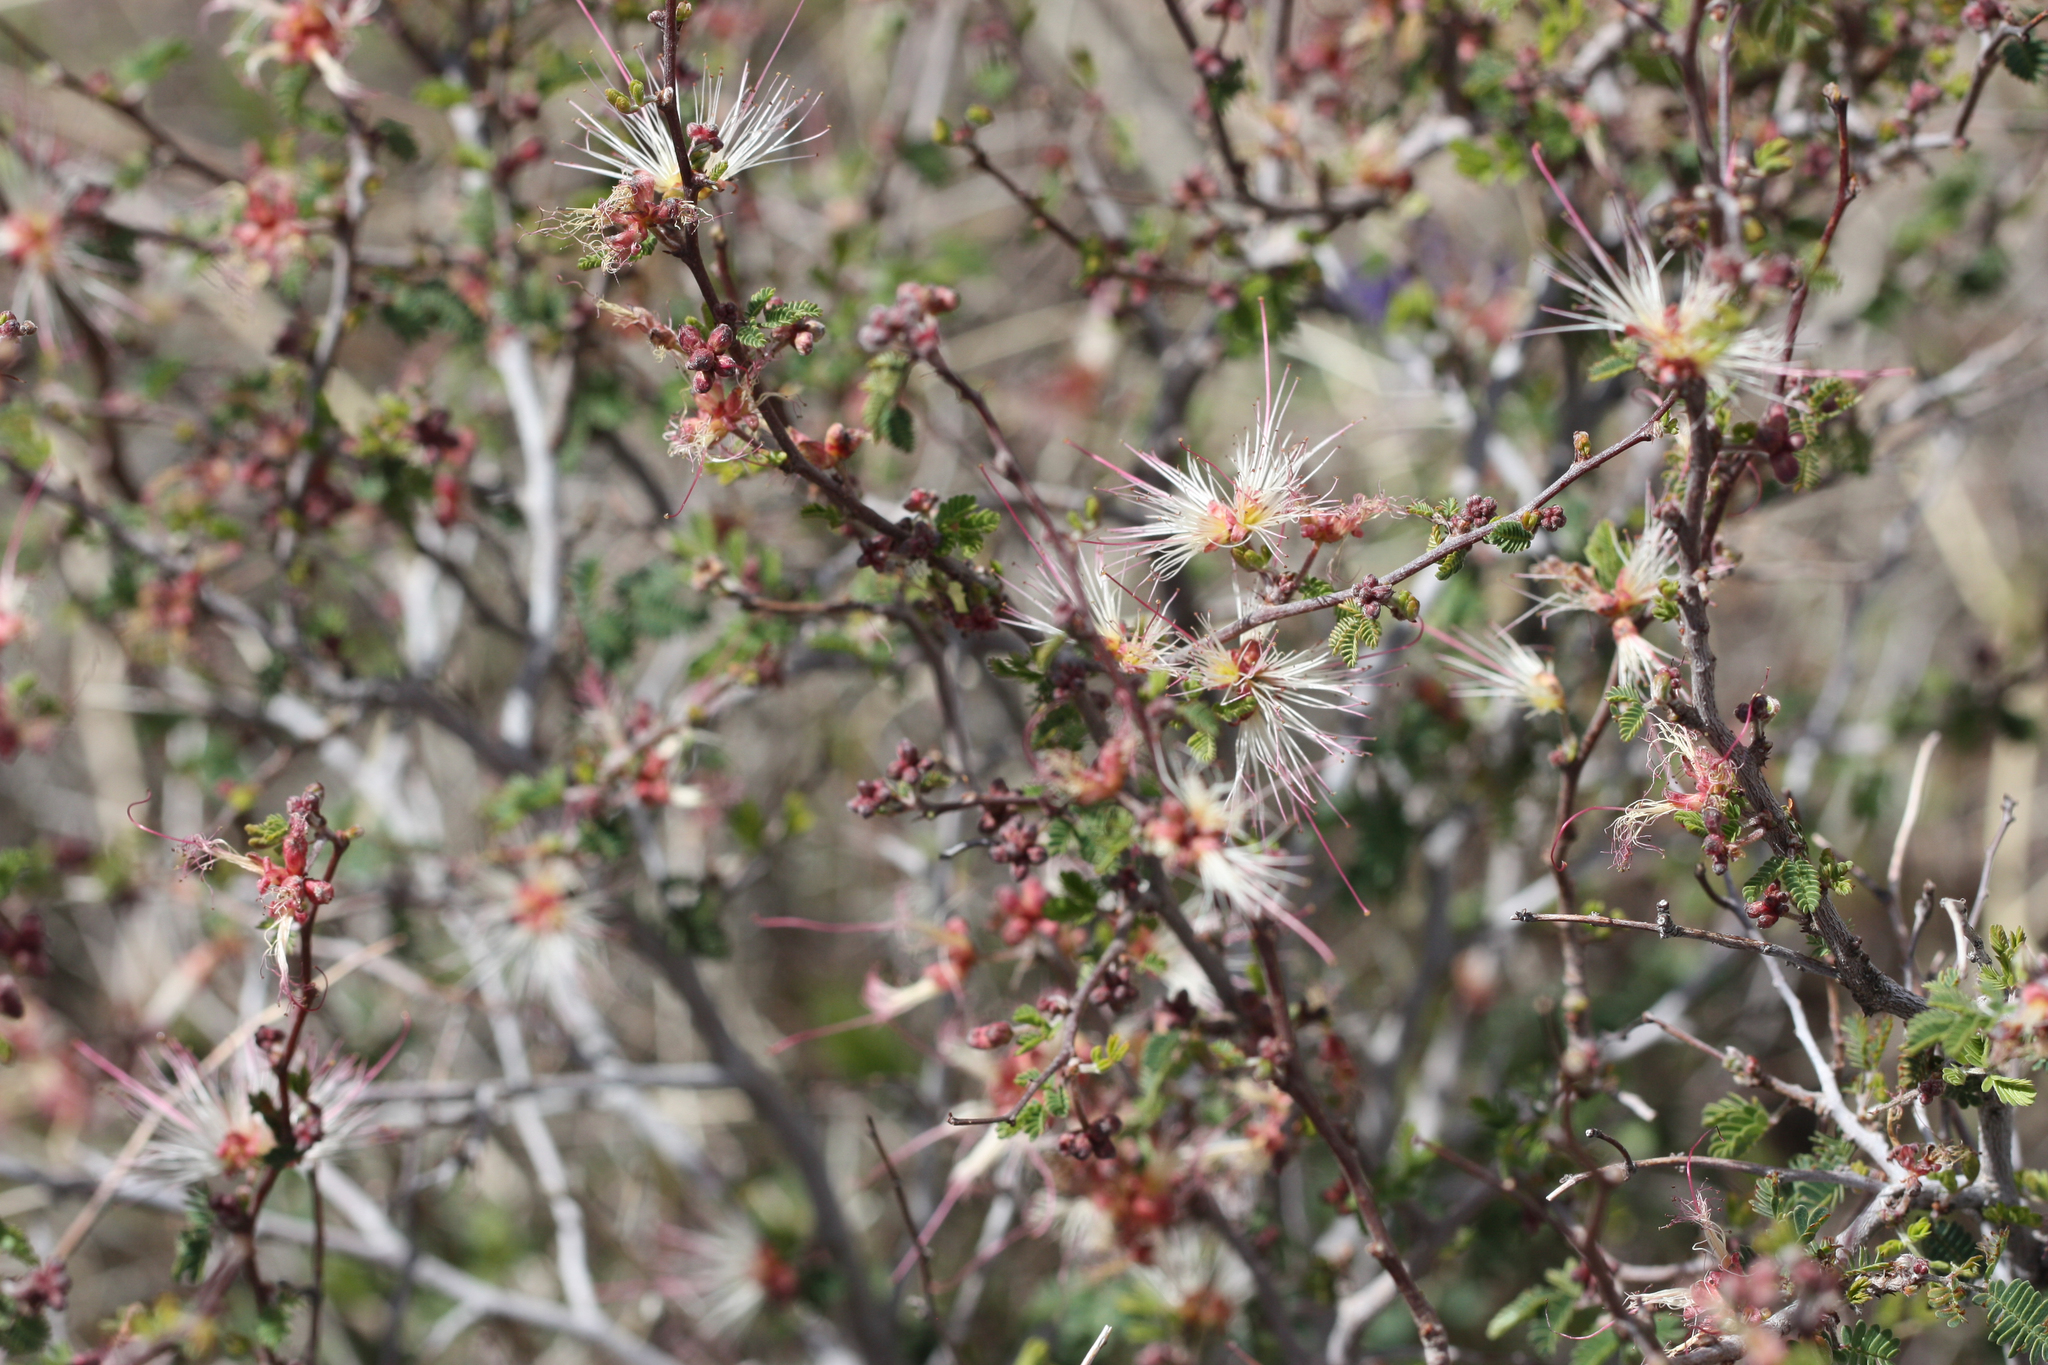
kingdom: Plantae
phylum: Tracheophyta
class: Magnoliopsida
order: Fabales
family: Fabaceae
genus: Calliandra
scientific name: Calliandra eriophylla
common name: Fairy-duster
